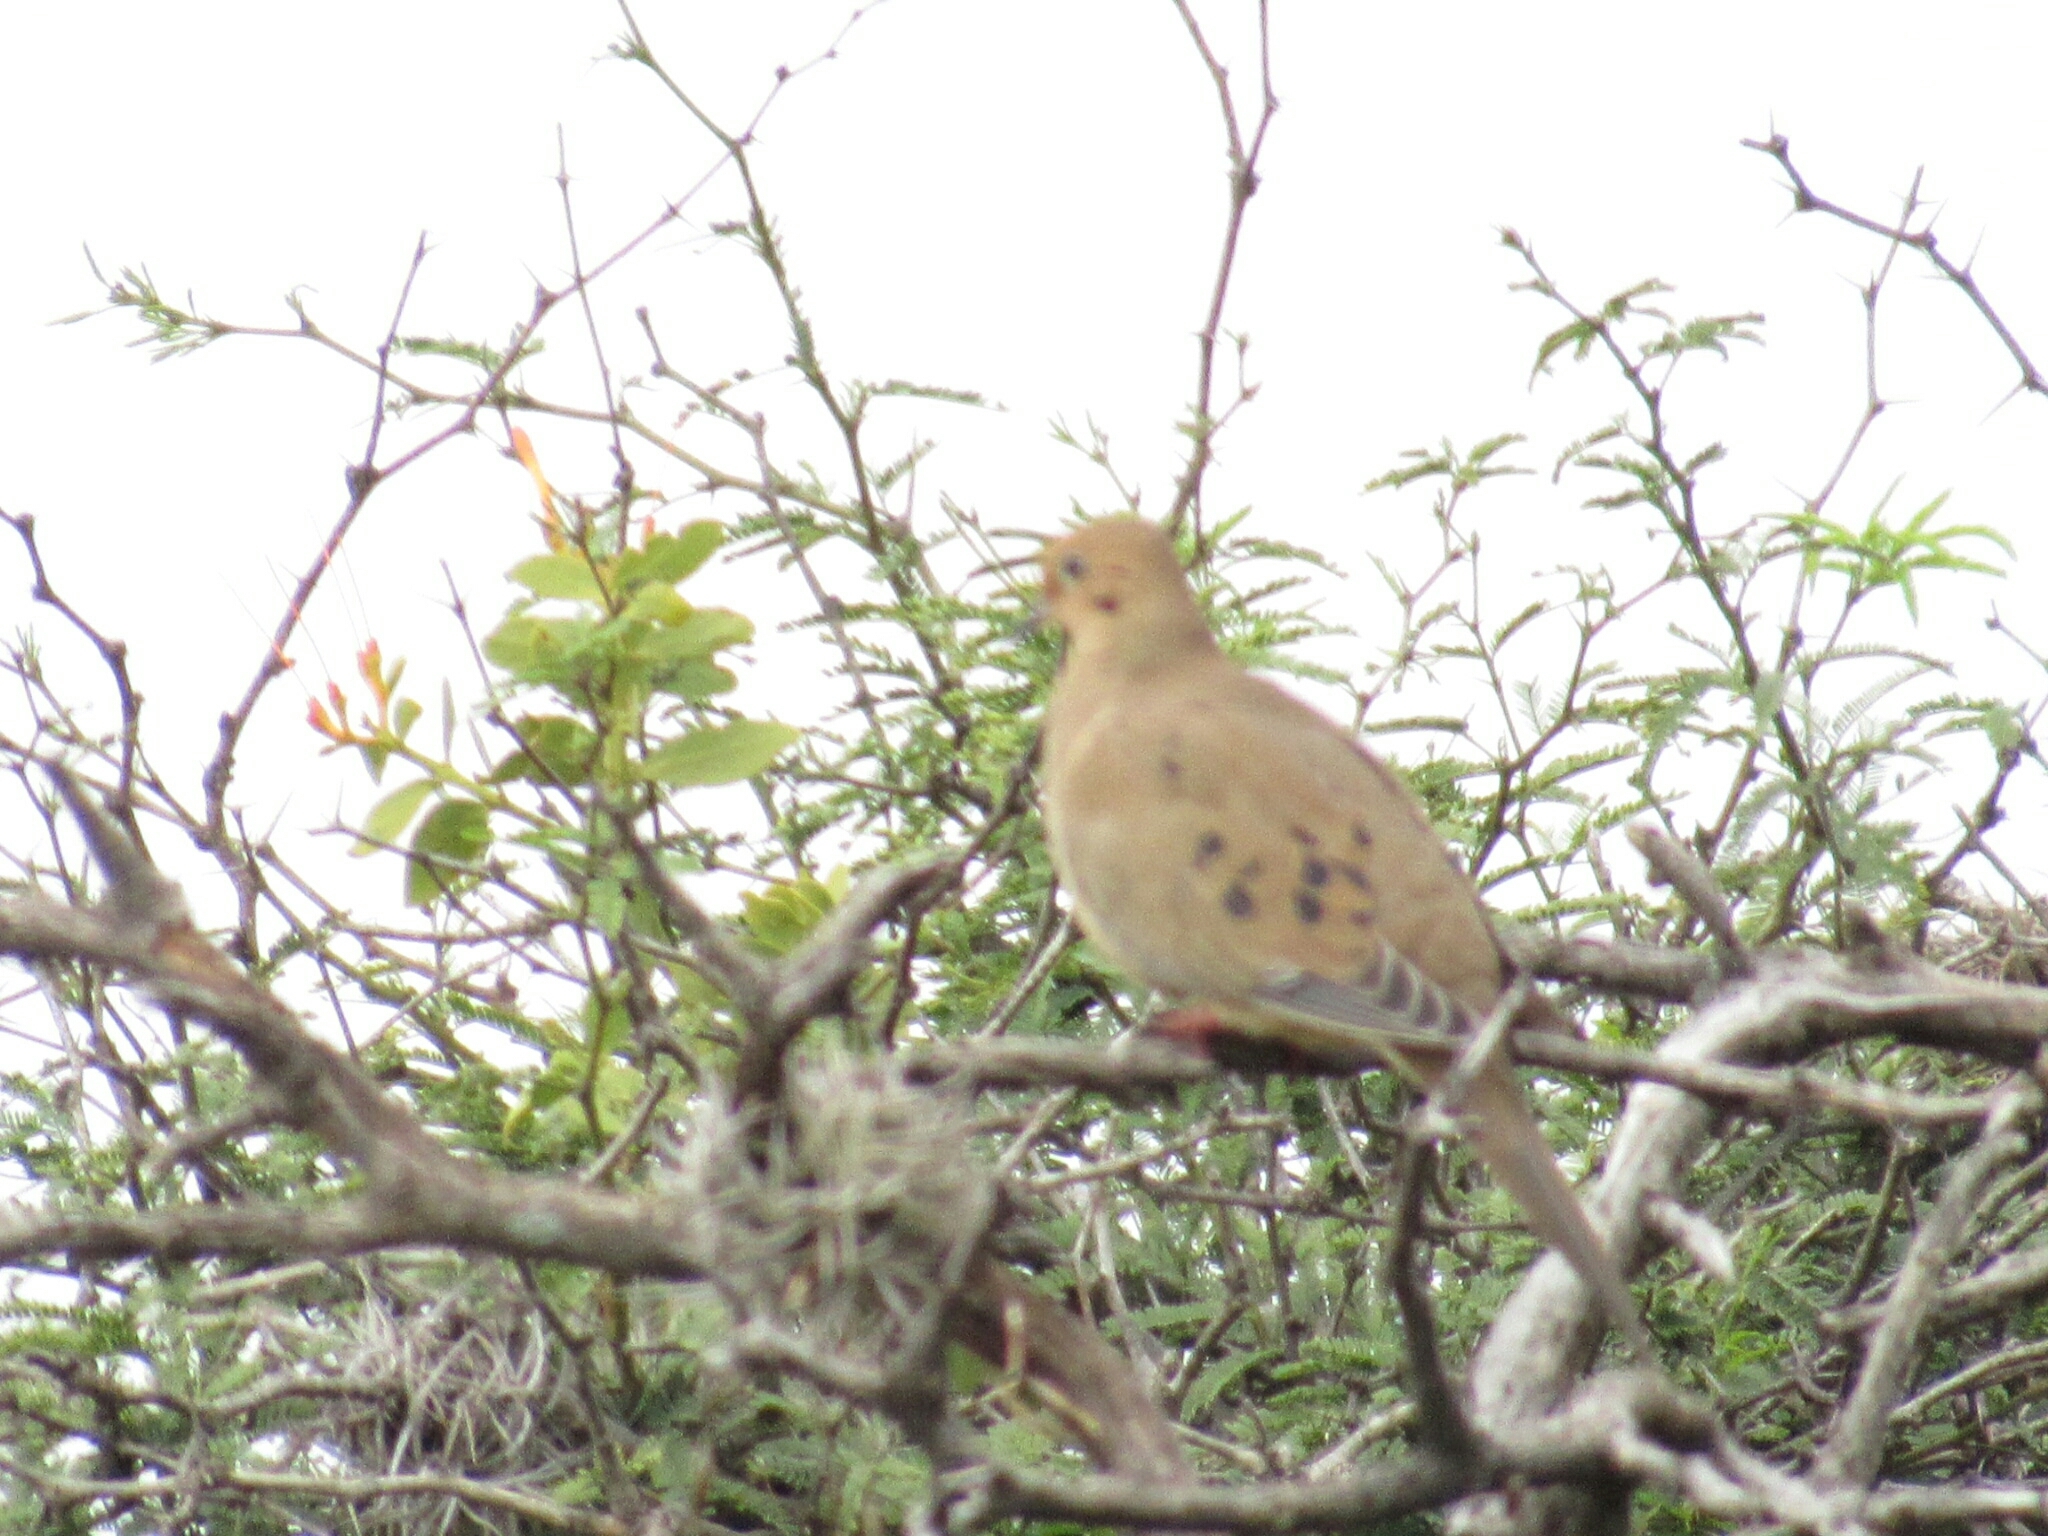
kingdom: Animalia
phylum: Chordata
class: Aves
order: Columbiformes
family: Columbidae
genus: Zenaida
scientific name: Zenaida macroura
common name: Mourning dove
